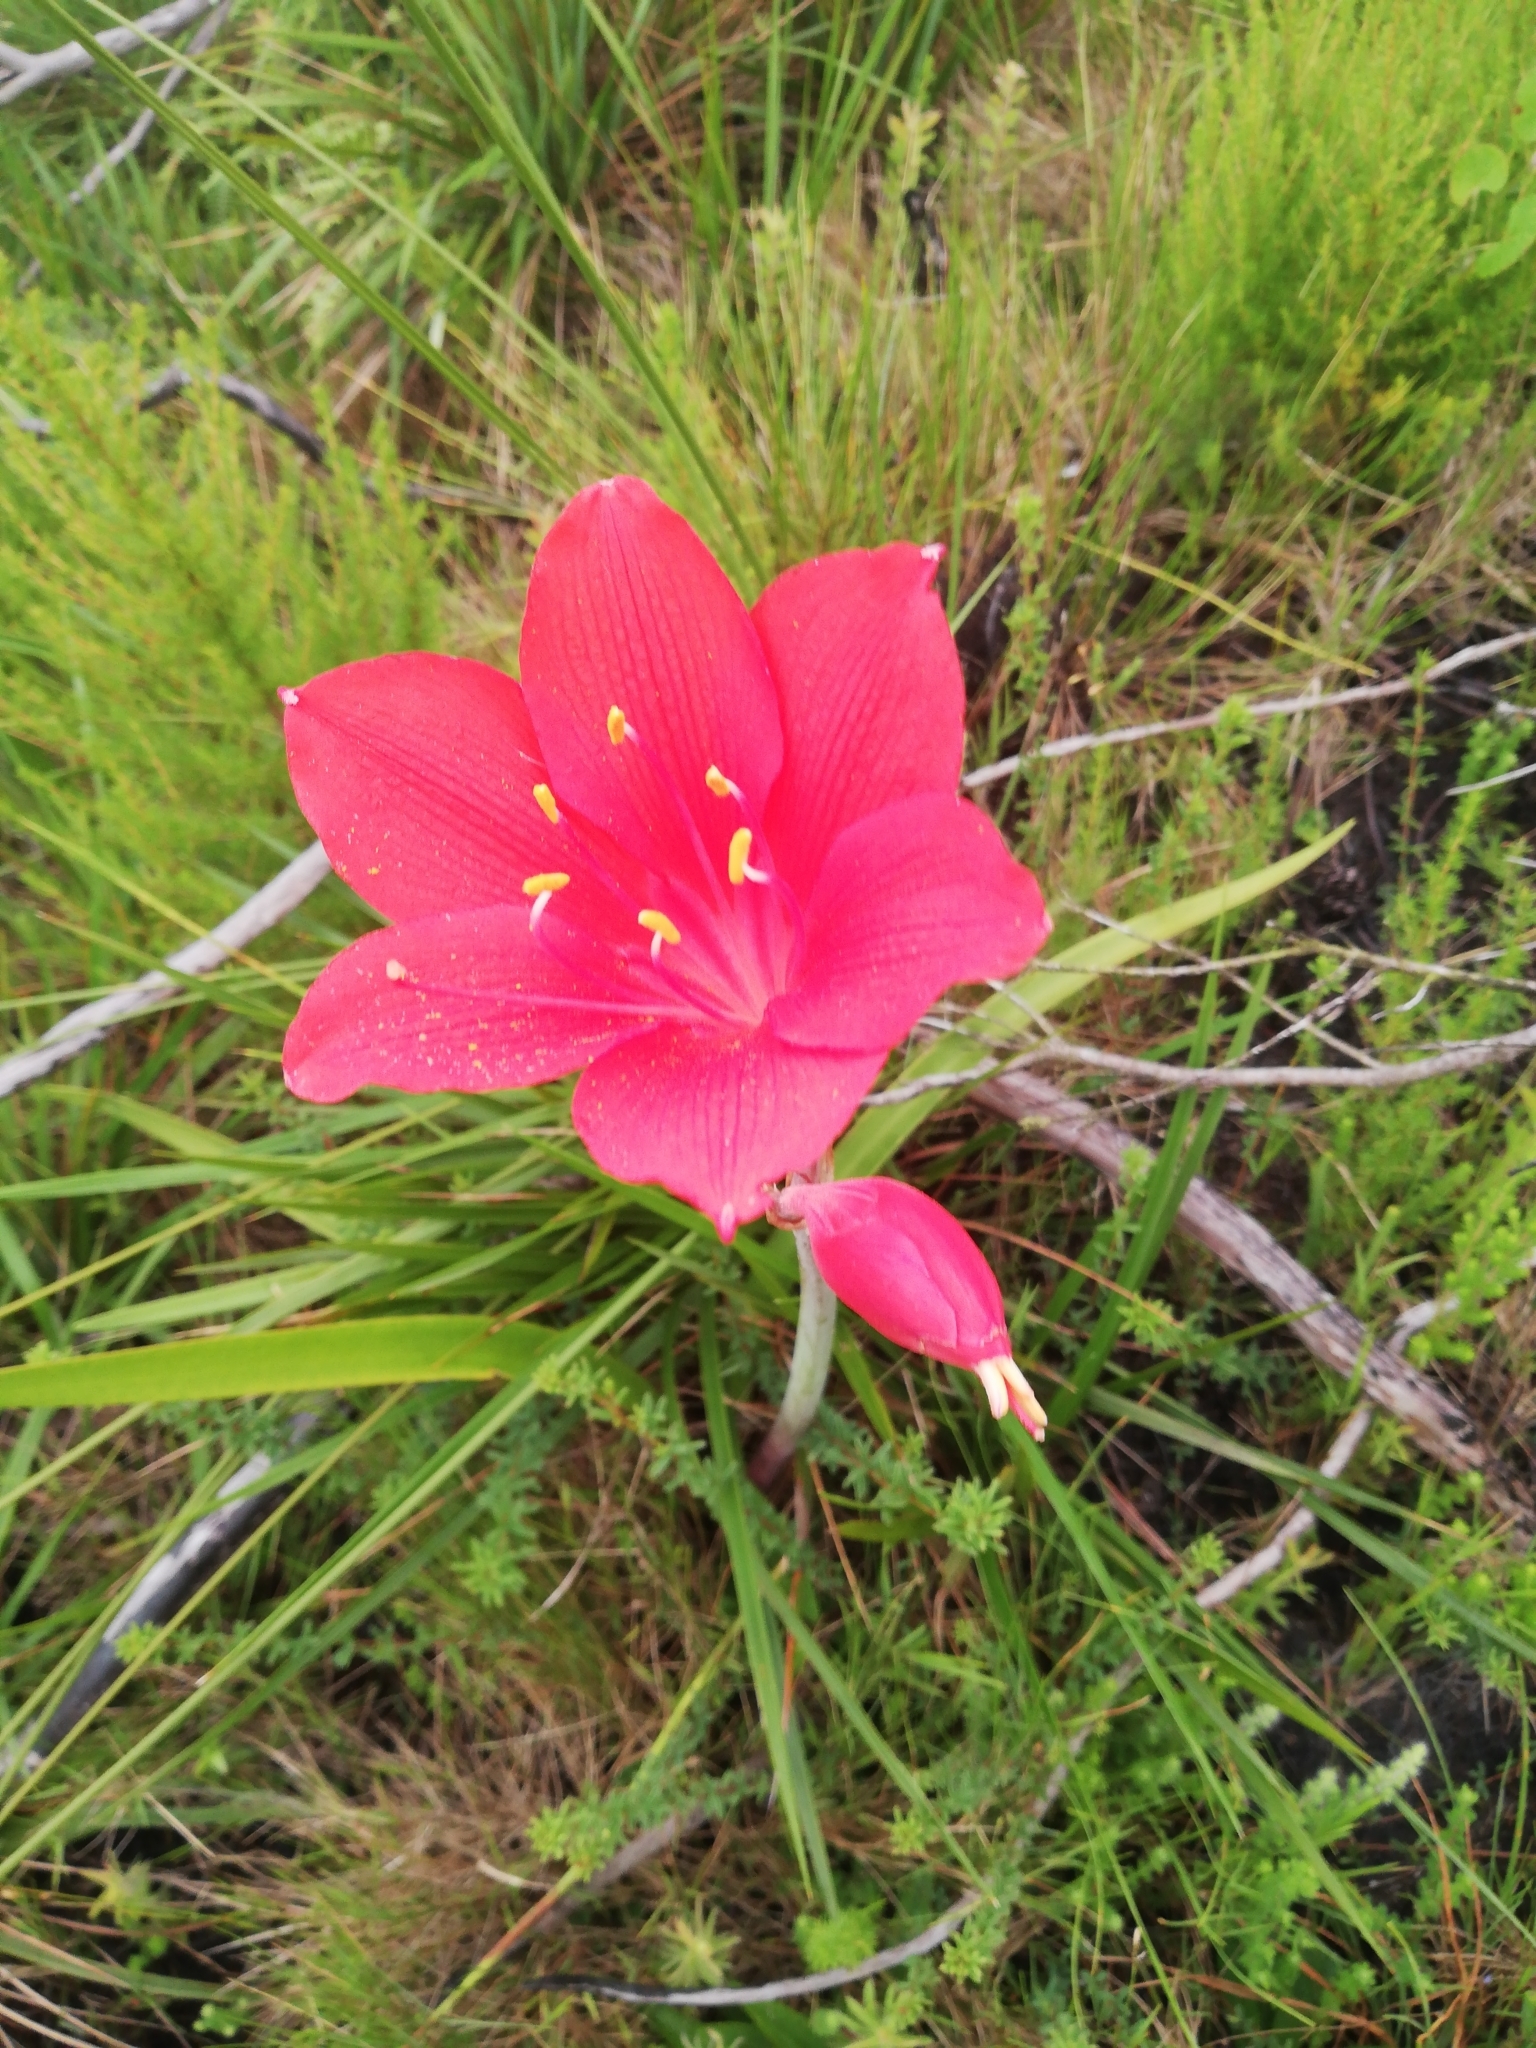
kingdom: Plantae
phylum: Tracheophyta
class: Liliopsida
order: Asparagales
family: Amaryllidaceae
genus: Cyrtanthus
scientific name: Cyrtanthus elatus
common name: Scarborough-lily
